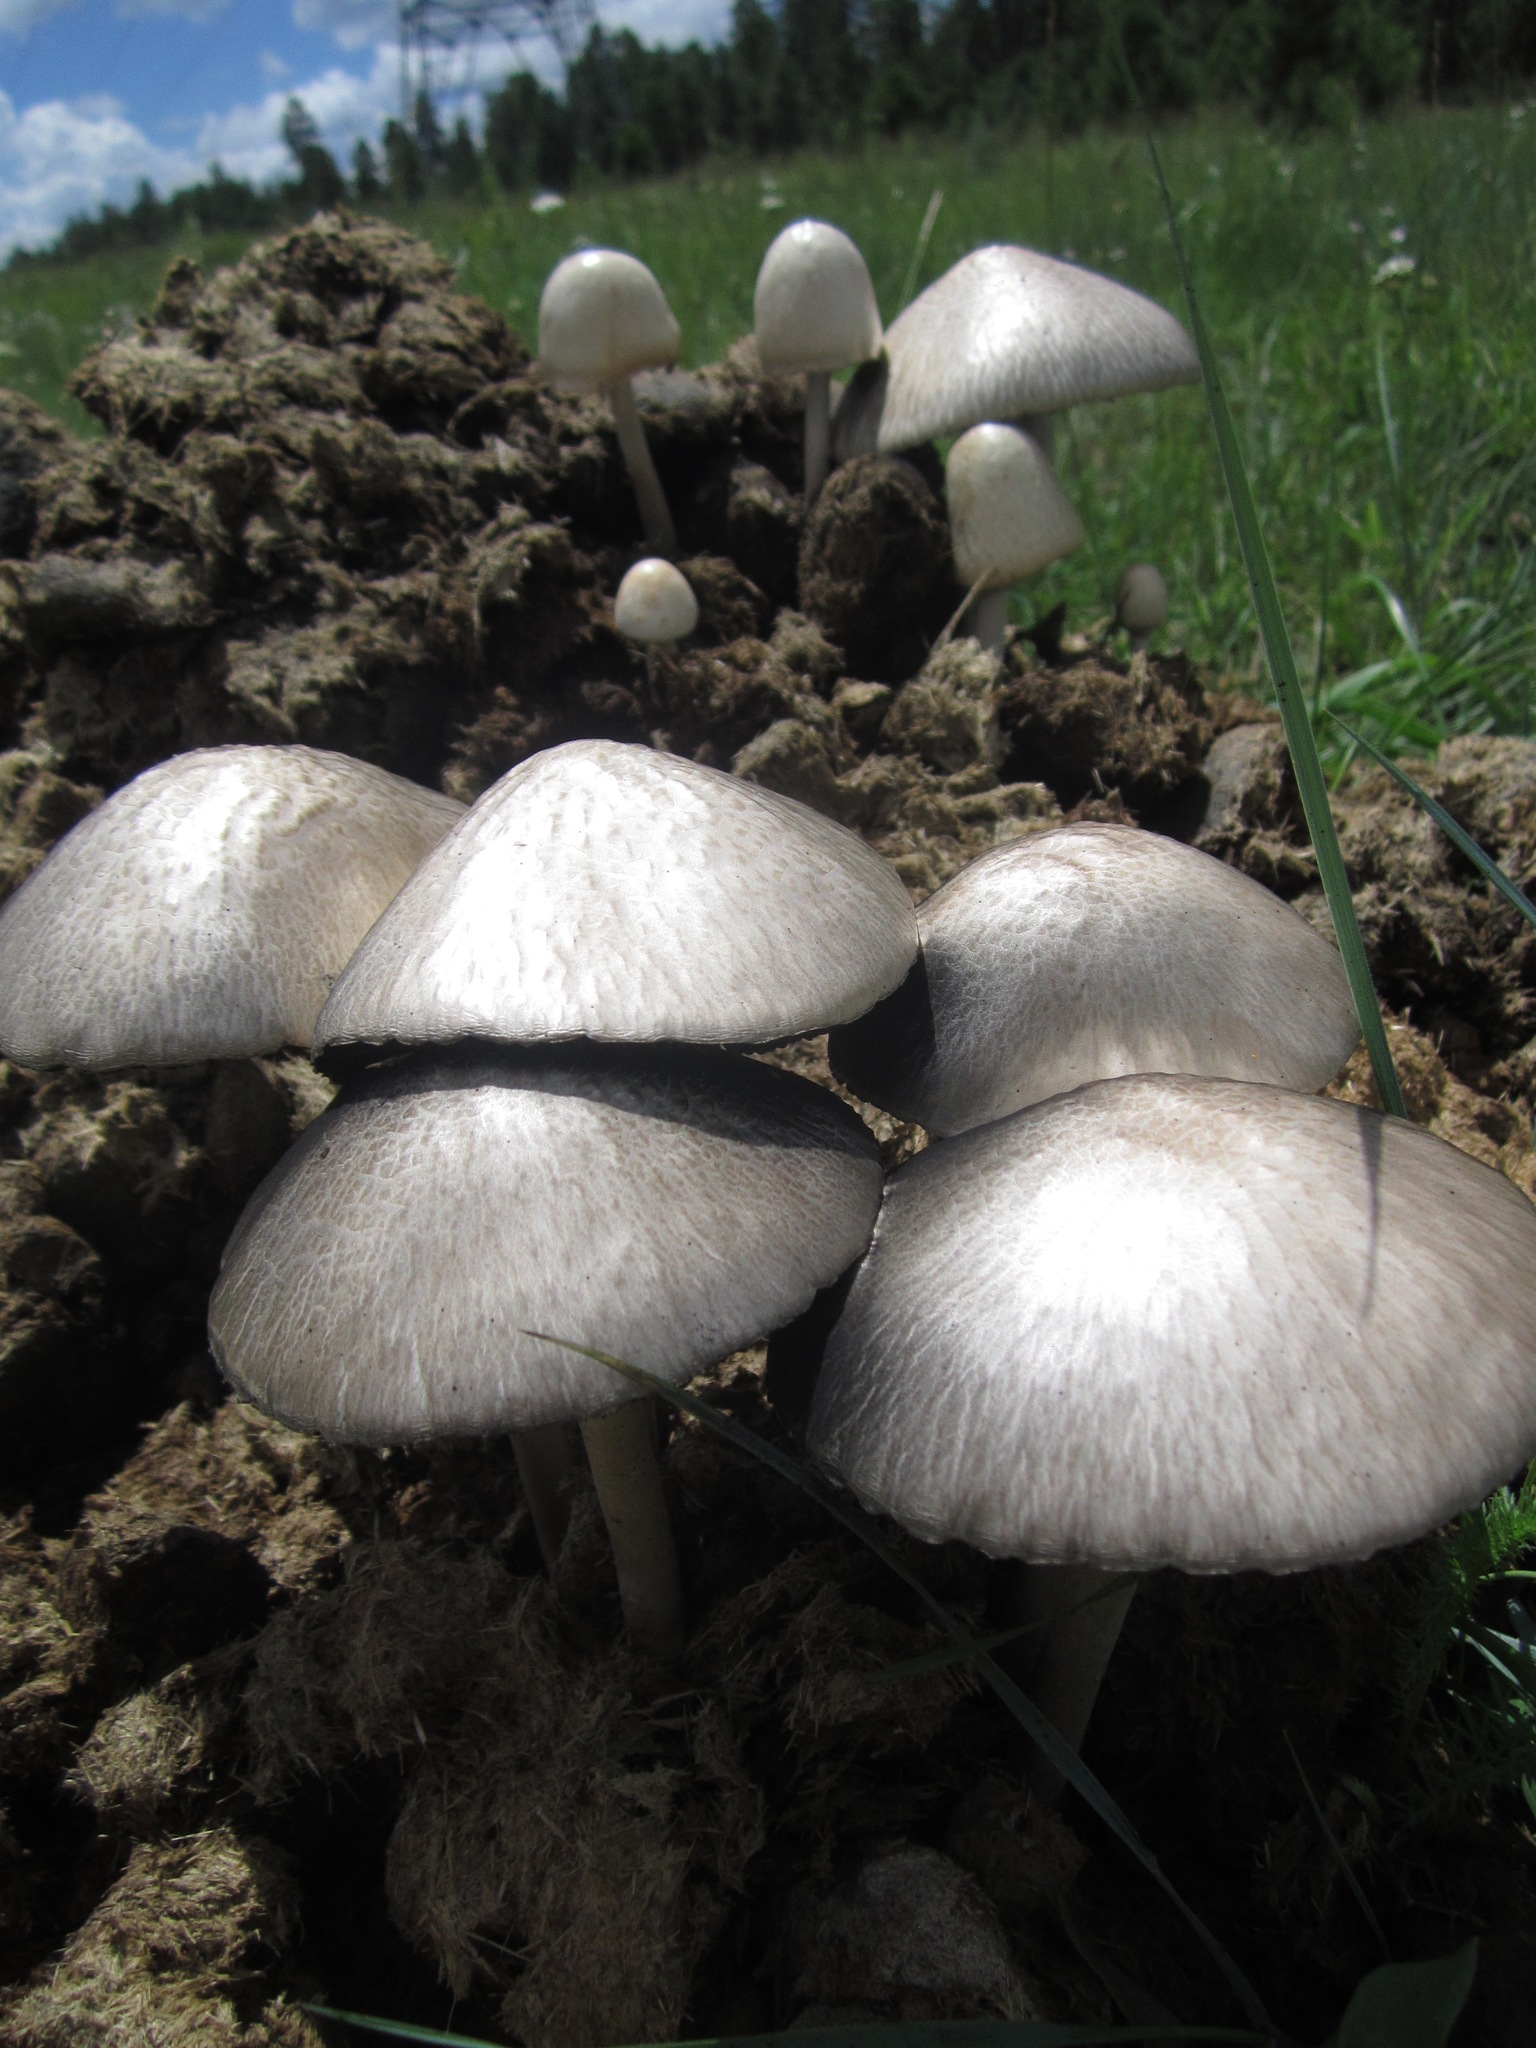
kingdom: Fungi
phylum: Basidiomycota
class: Agaricomycetes
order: Agaricales
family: Bolbitiaceae
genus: Panaeolus
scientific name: Panaeolus semiovatus
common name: Shiny mottlegill
